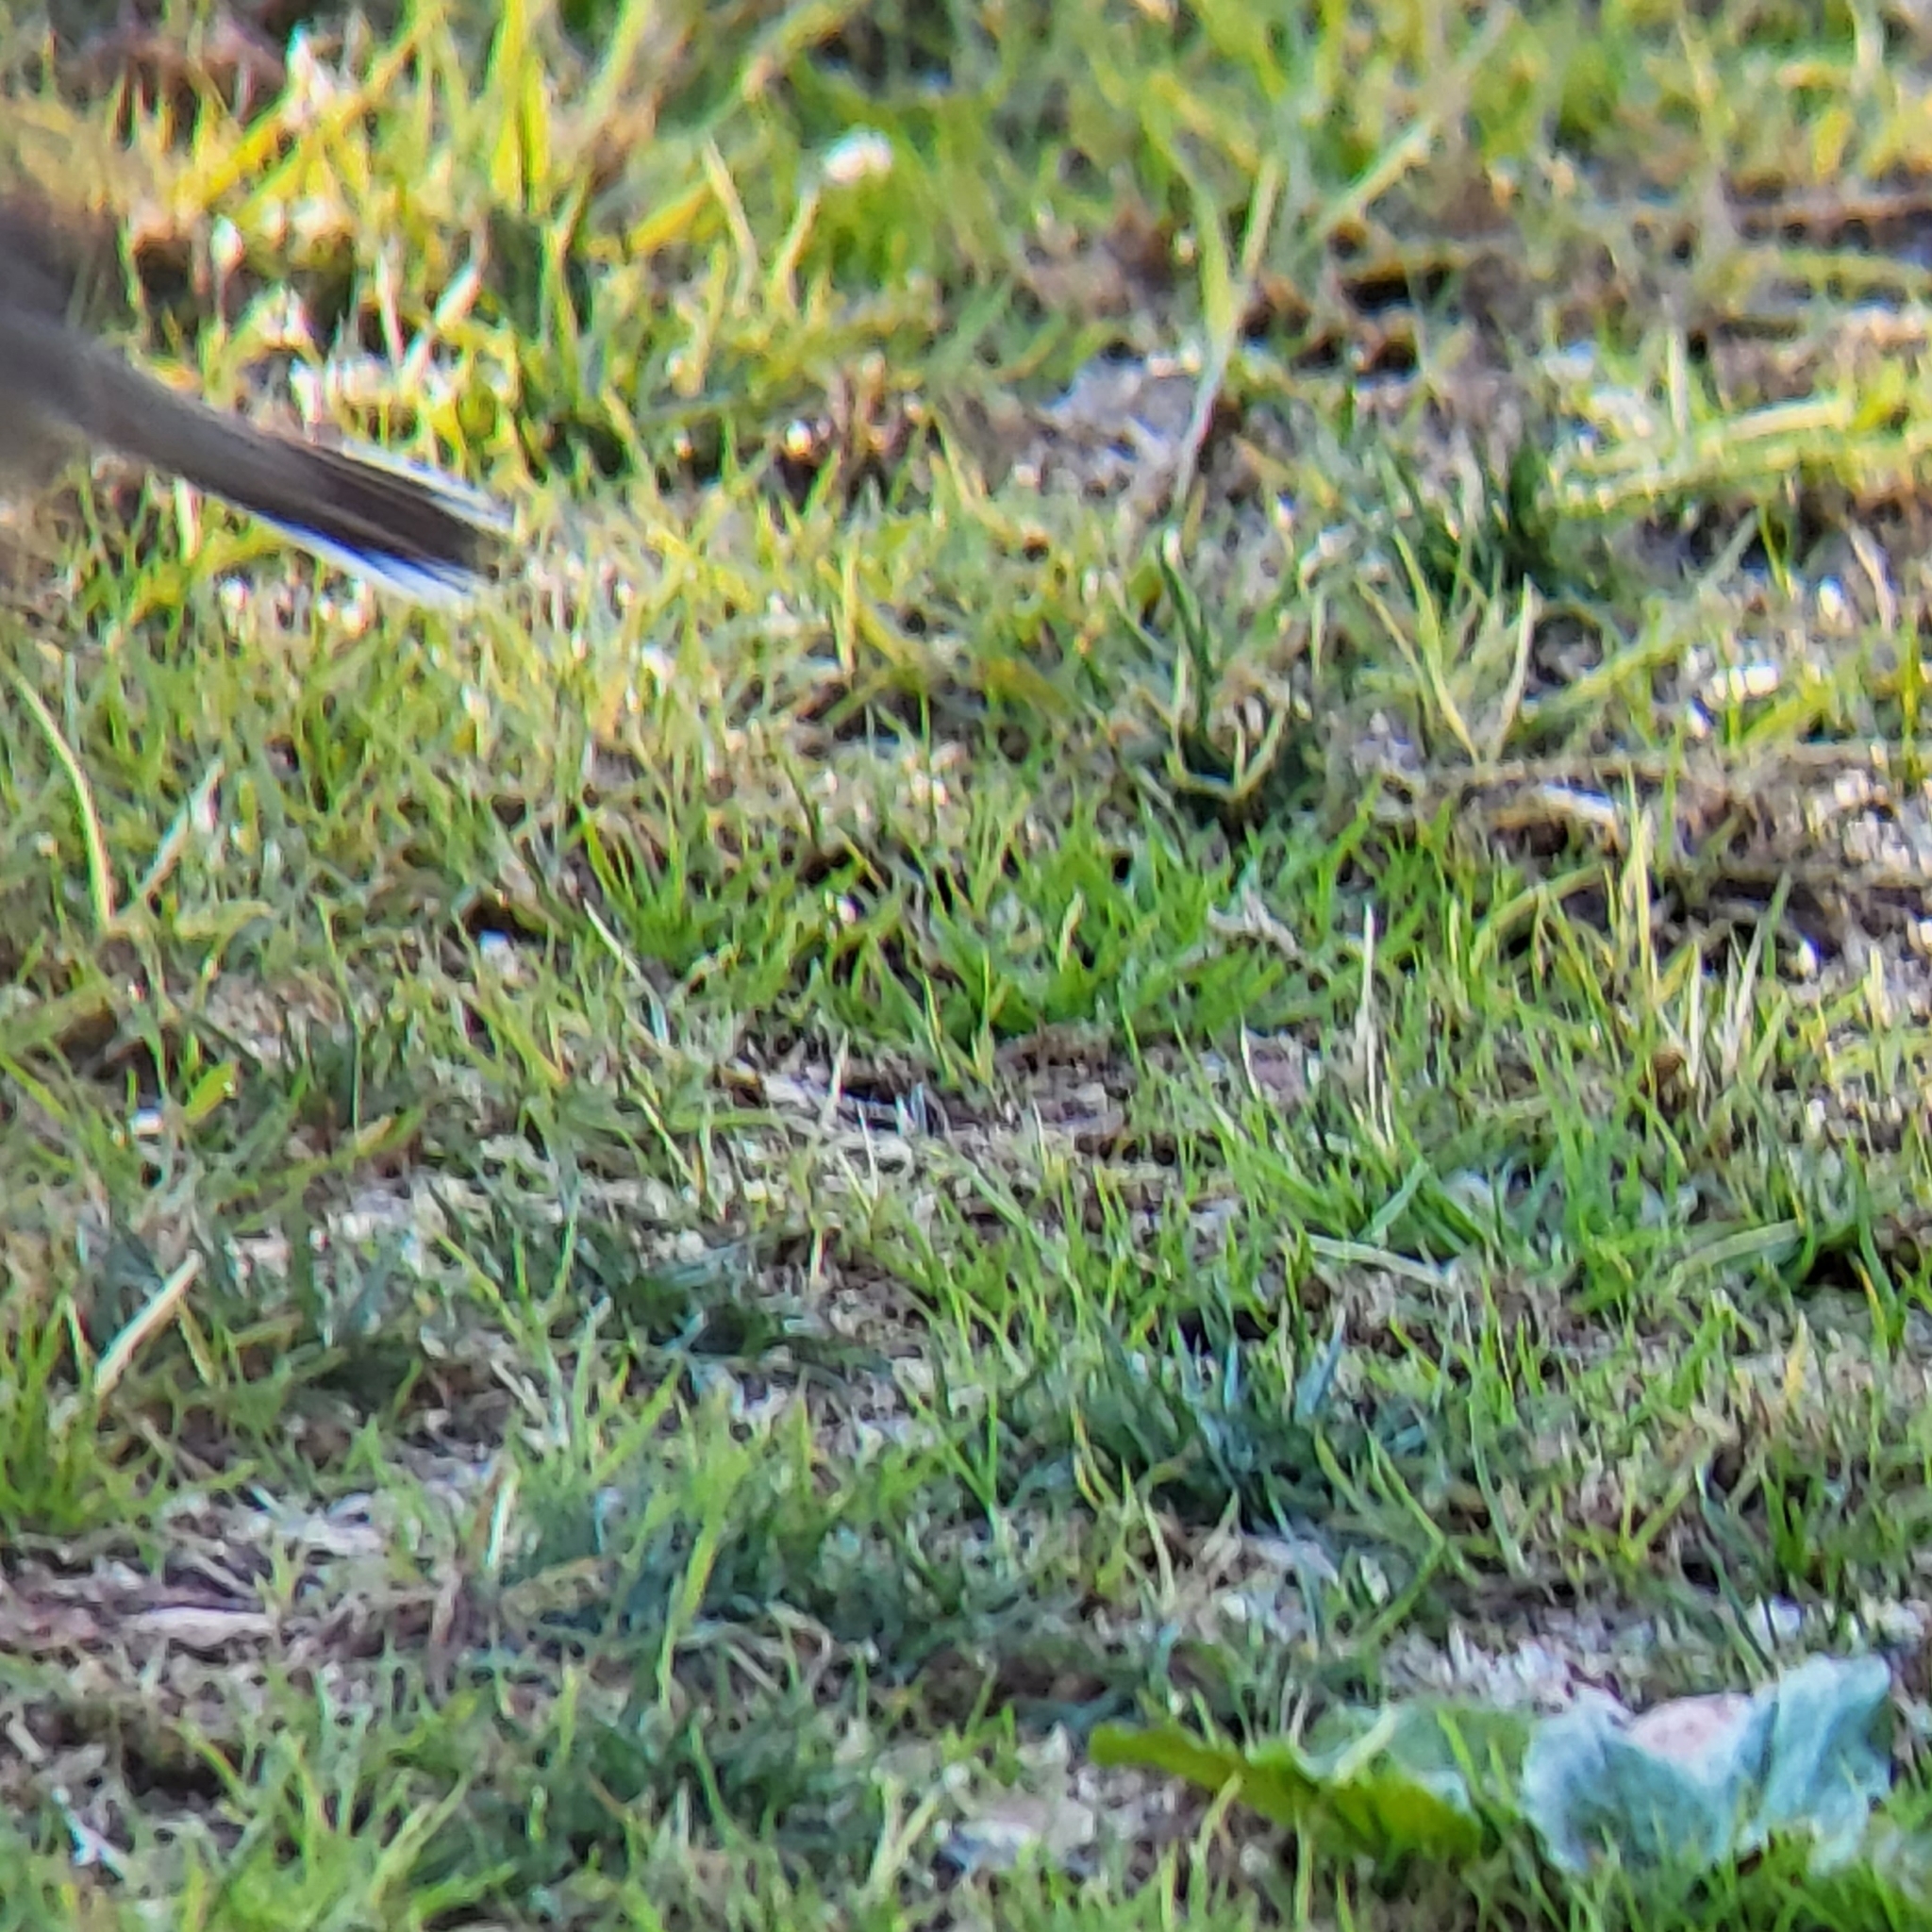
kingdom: Animalia
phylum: Chordata
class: Aves
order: Passeriformes
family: Passerellidae
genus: Chondestes
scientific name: Chondestes grammacus
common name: Lark sparrow
